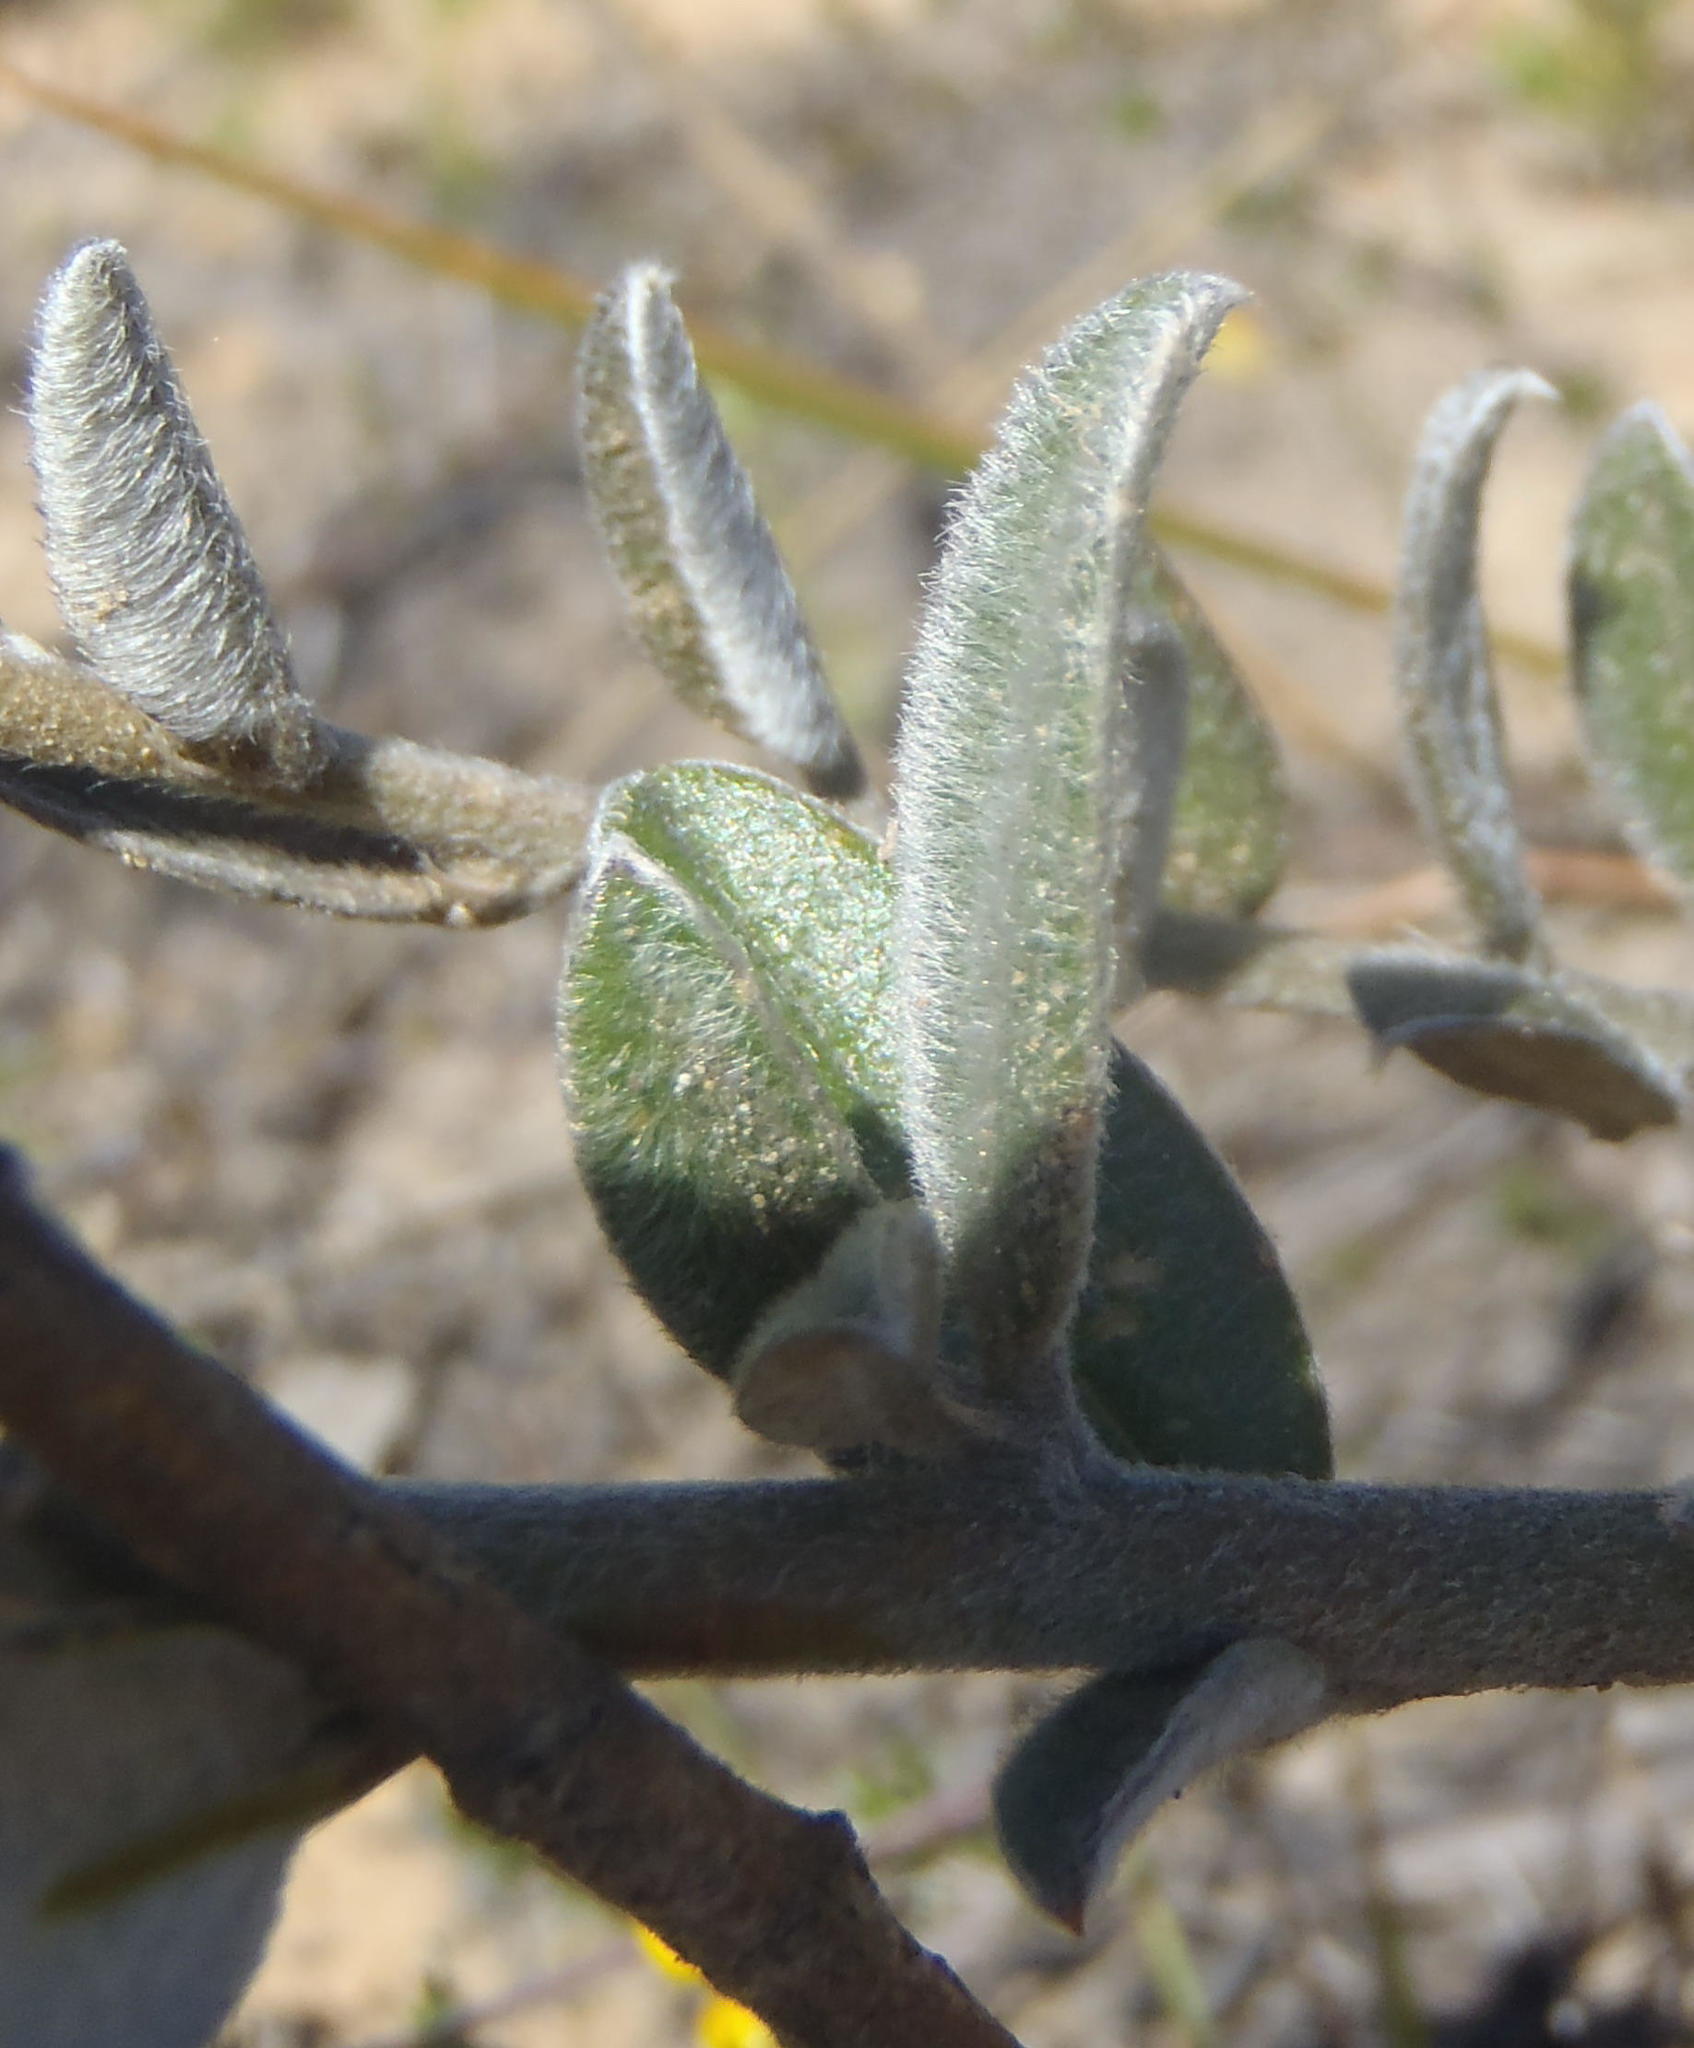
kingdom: Plantae
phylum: Tracheophyta
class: Magnoliopsida
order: Fabales
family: Fabaceae
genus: Podalyria
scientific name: Podalyria burchellii
